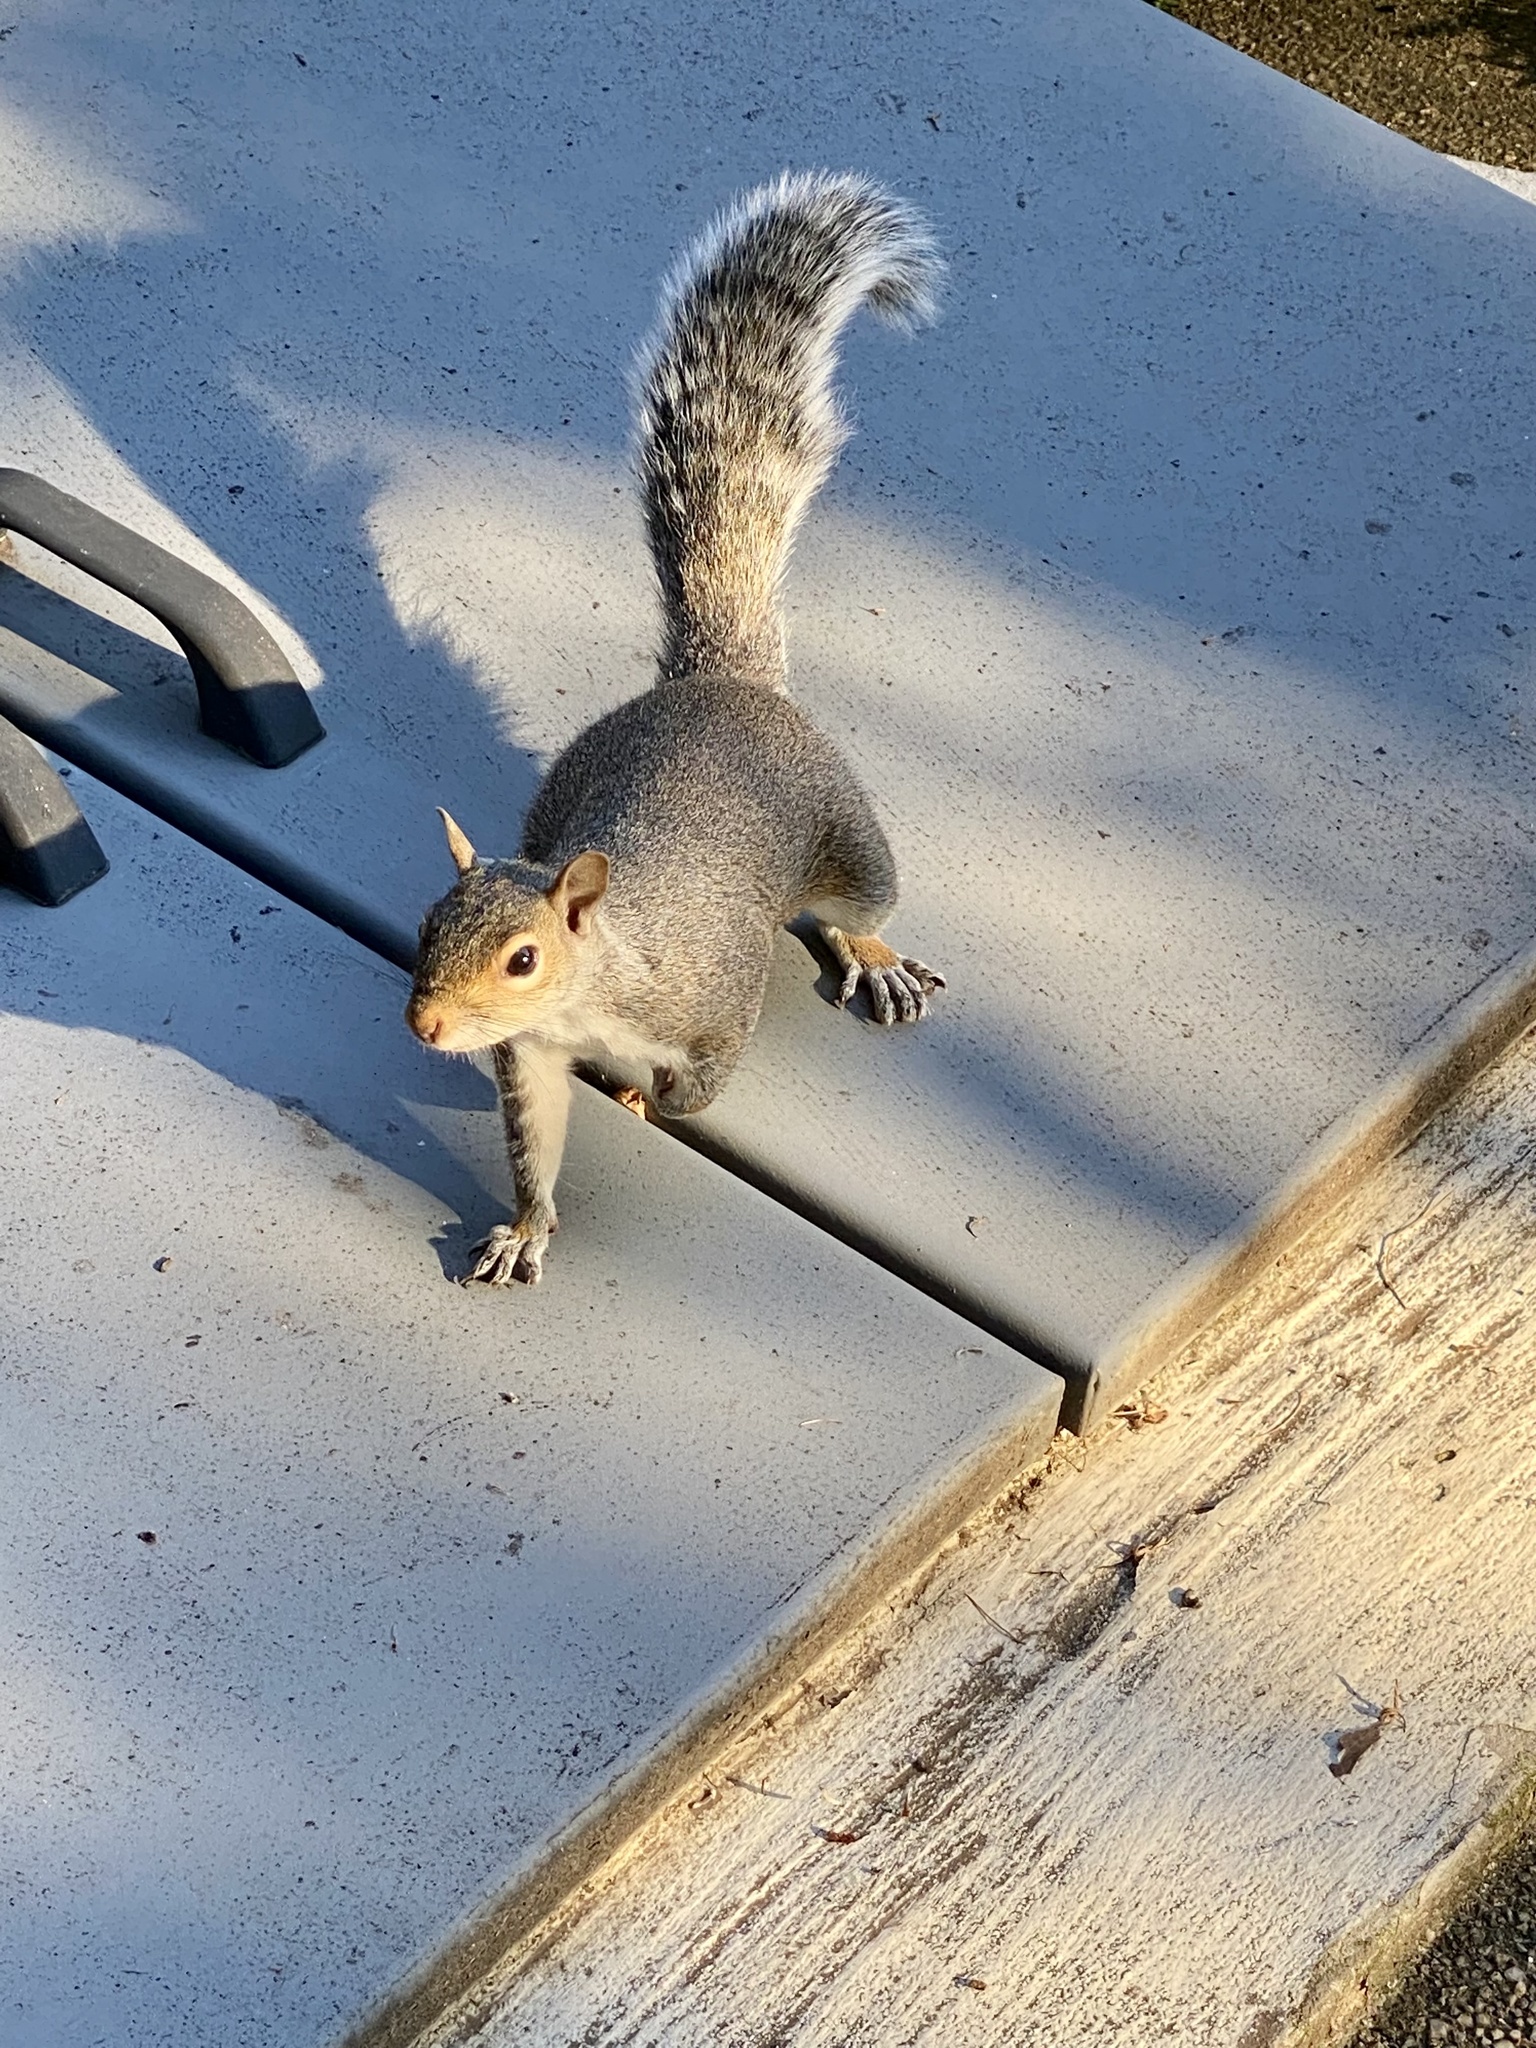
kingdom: Animalia
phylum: Chordata
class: Mammalia
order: Rodentia
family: Sciuridae
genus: Sciurus
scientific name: Sciurus carolinensis
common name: Eastern gray squirrel
